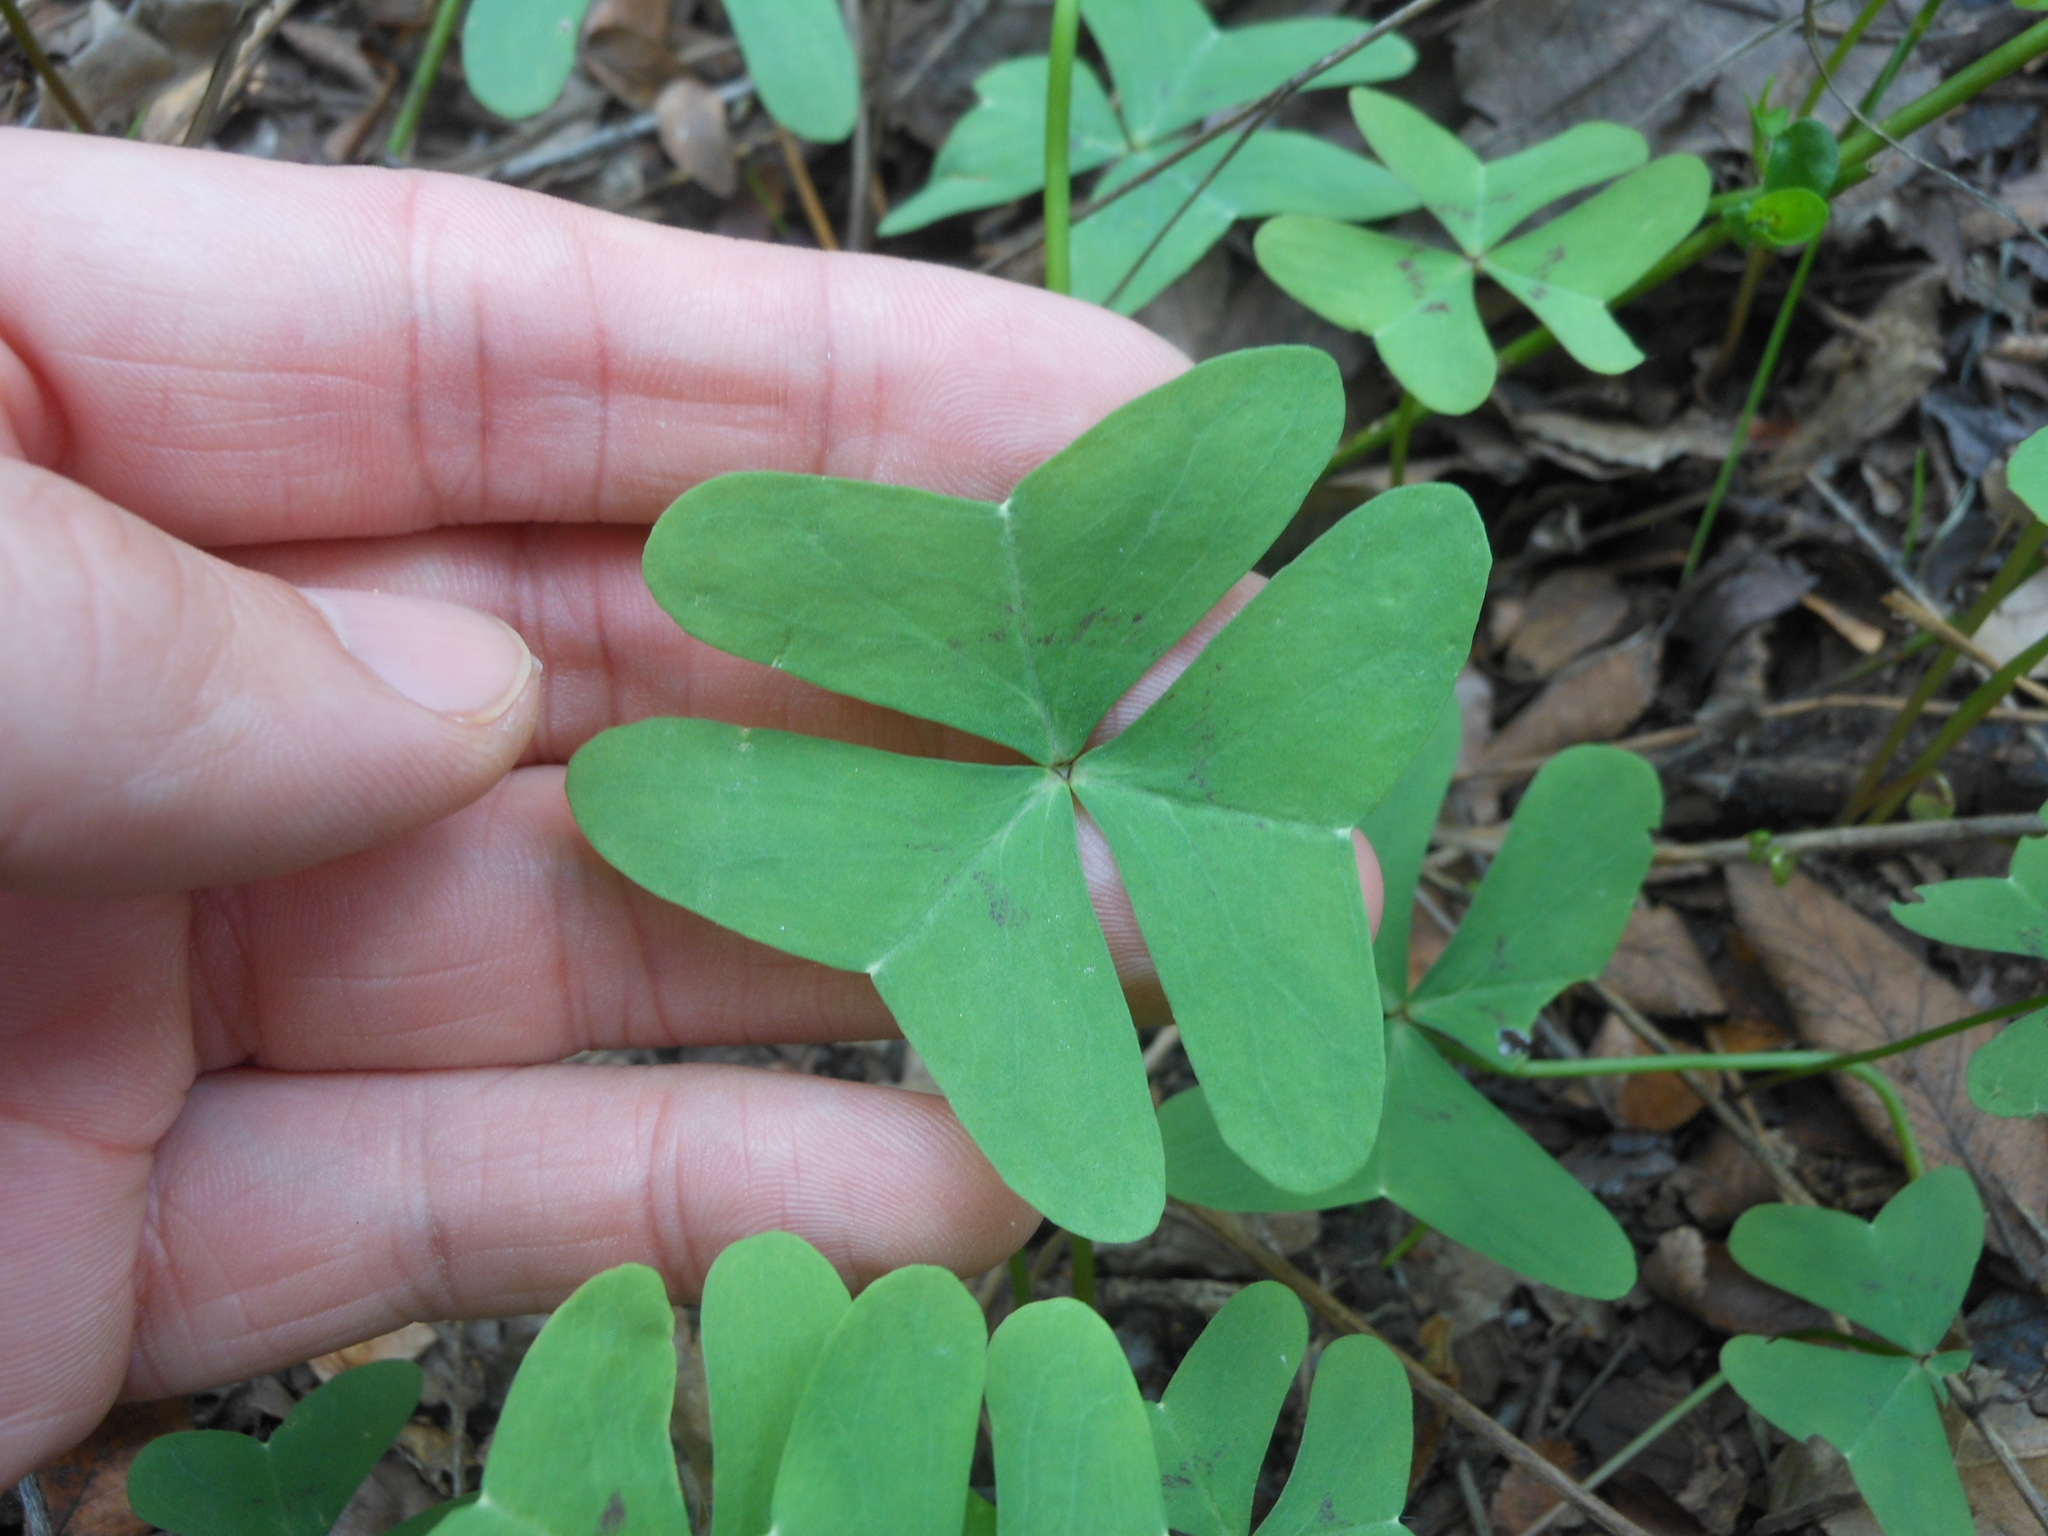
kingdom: Plantae
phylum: Tracheophyta
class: Magnoliopsida
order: Oxalidales
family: Oxalidaceae
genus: Oxalis
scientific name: Oxalis drummondii
